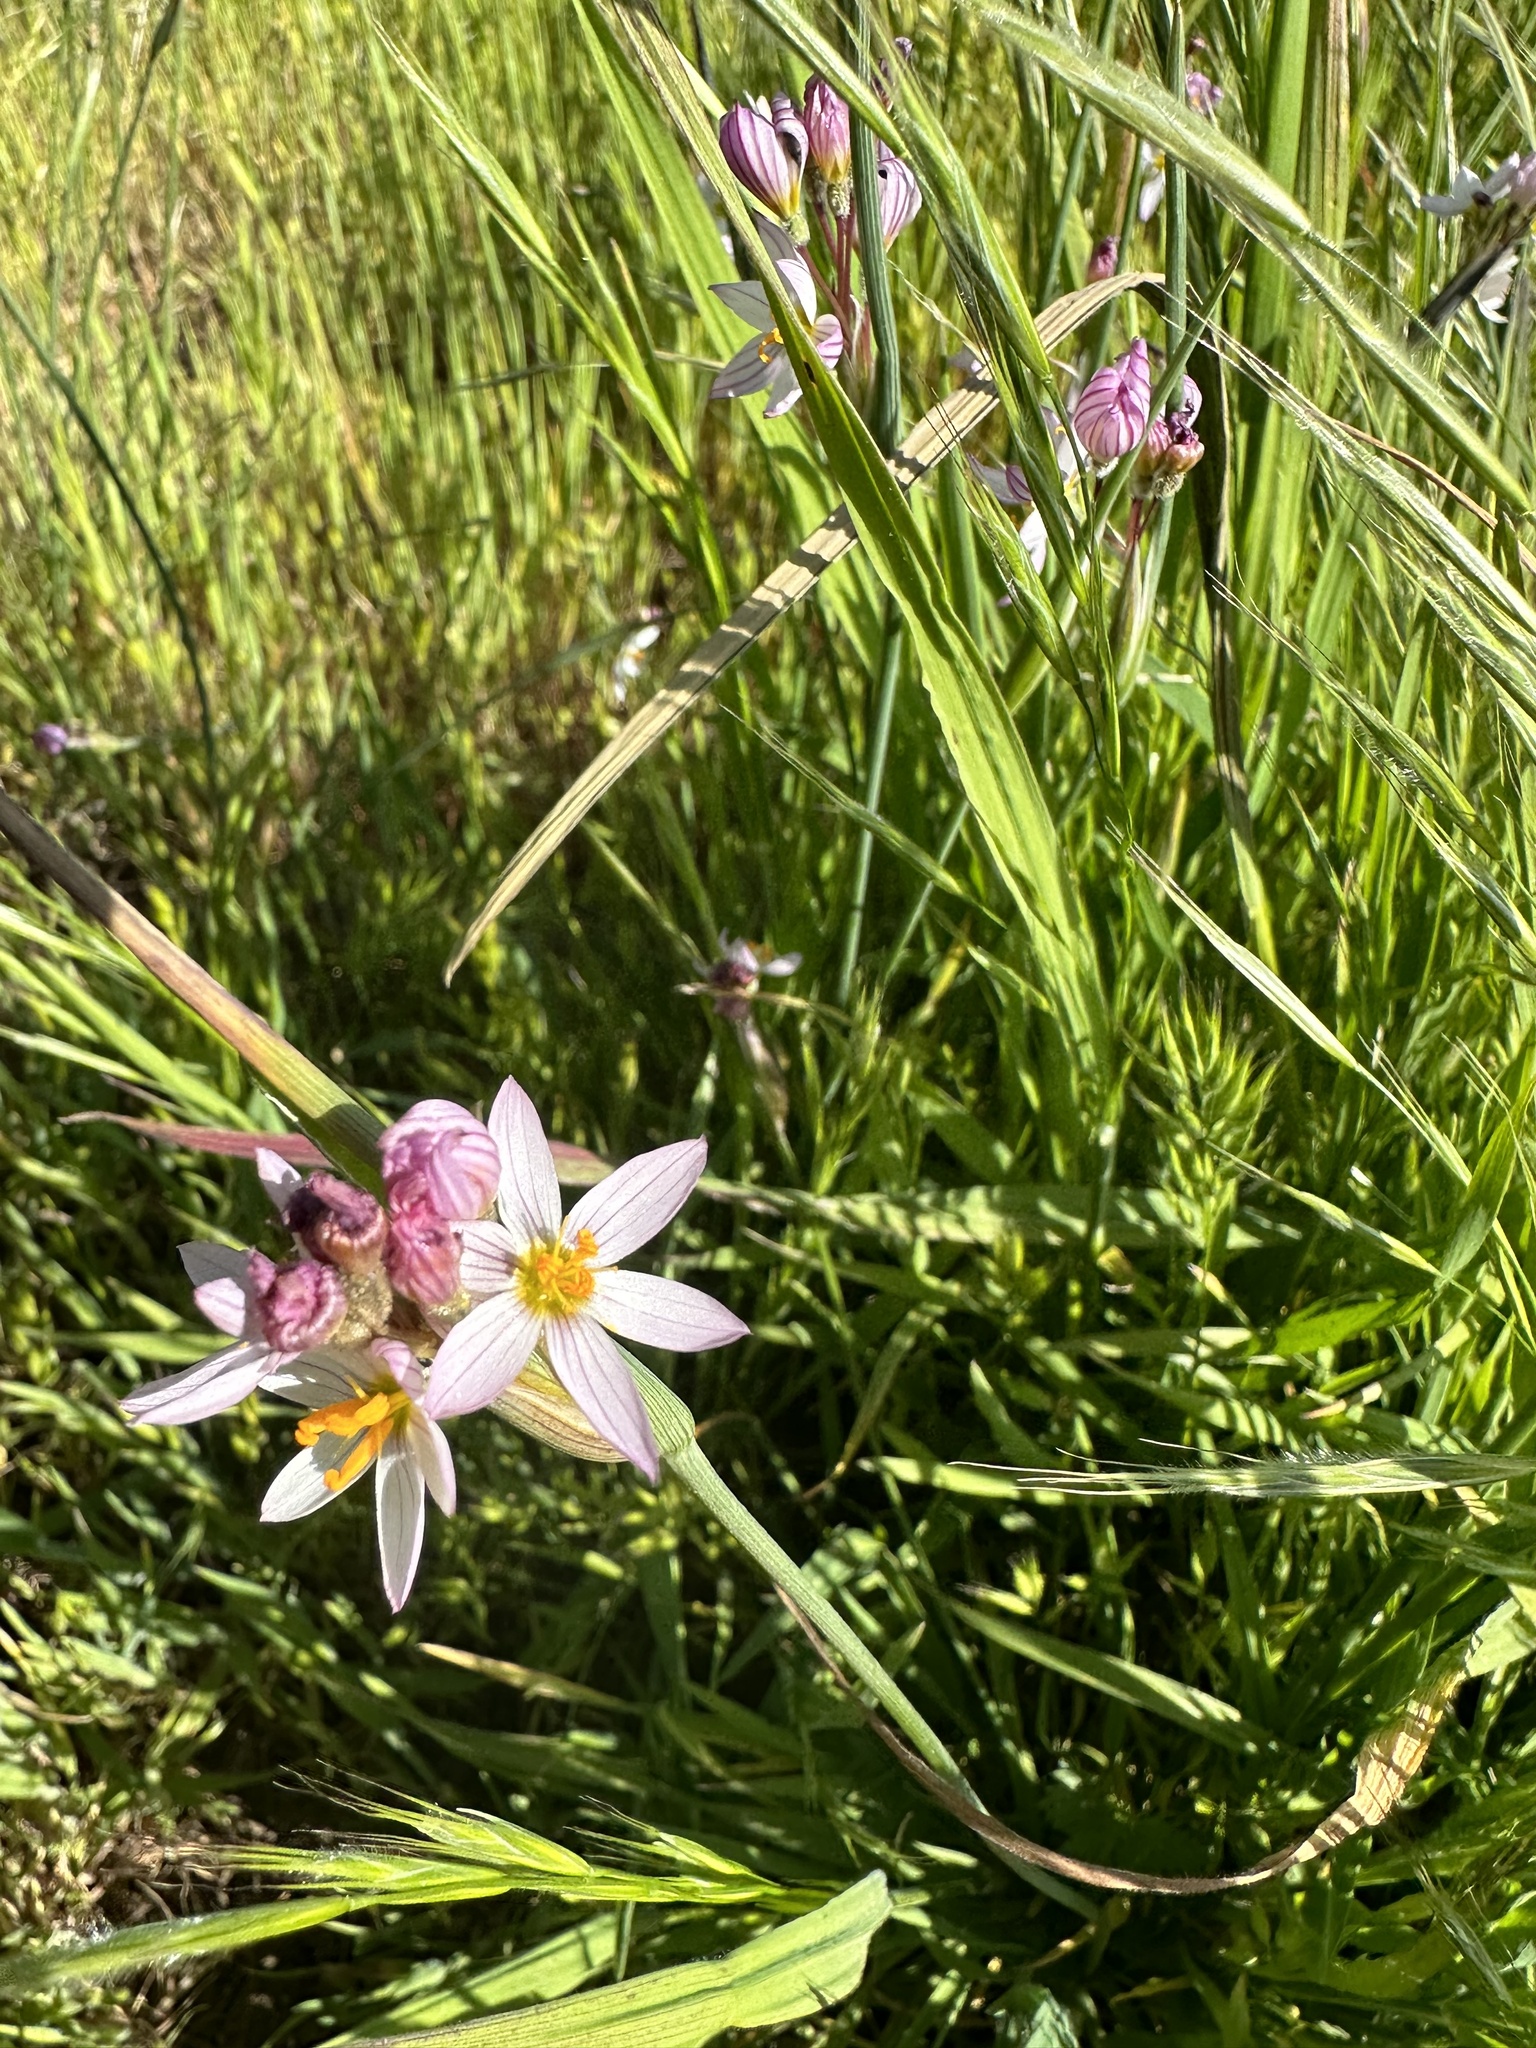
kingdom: Plantae
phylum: Tracheophyta
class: Liliopsida
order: Asparagales
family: Iridaceae
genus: Olsynium
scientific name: Olsynium junceum
